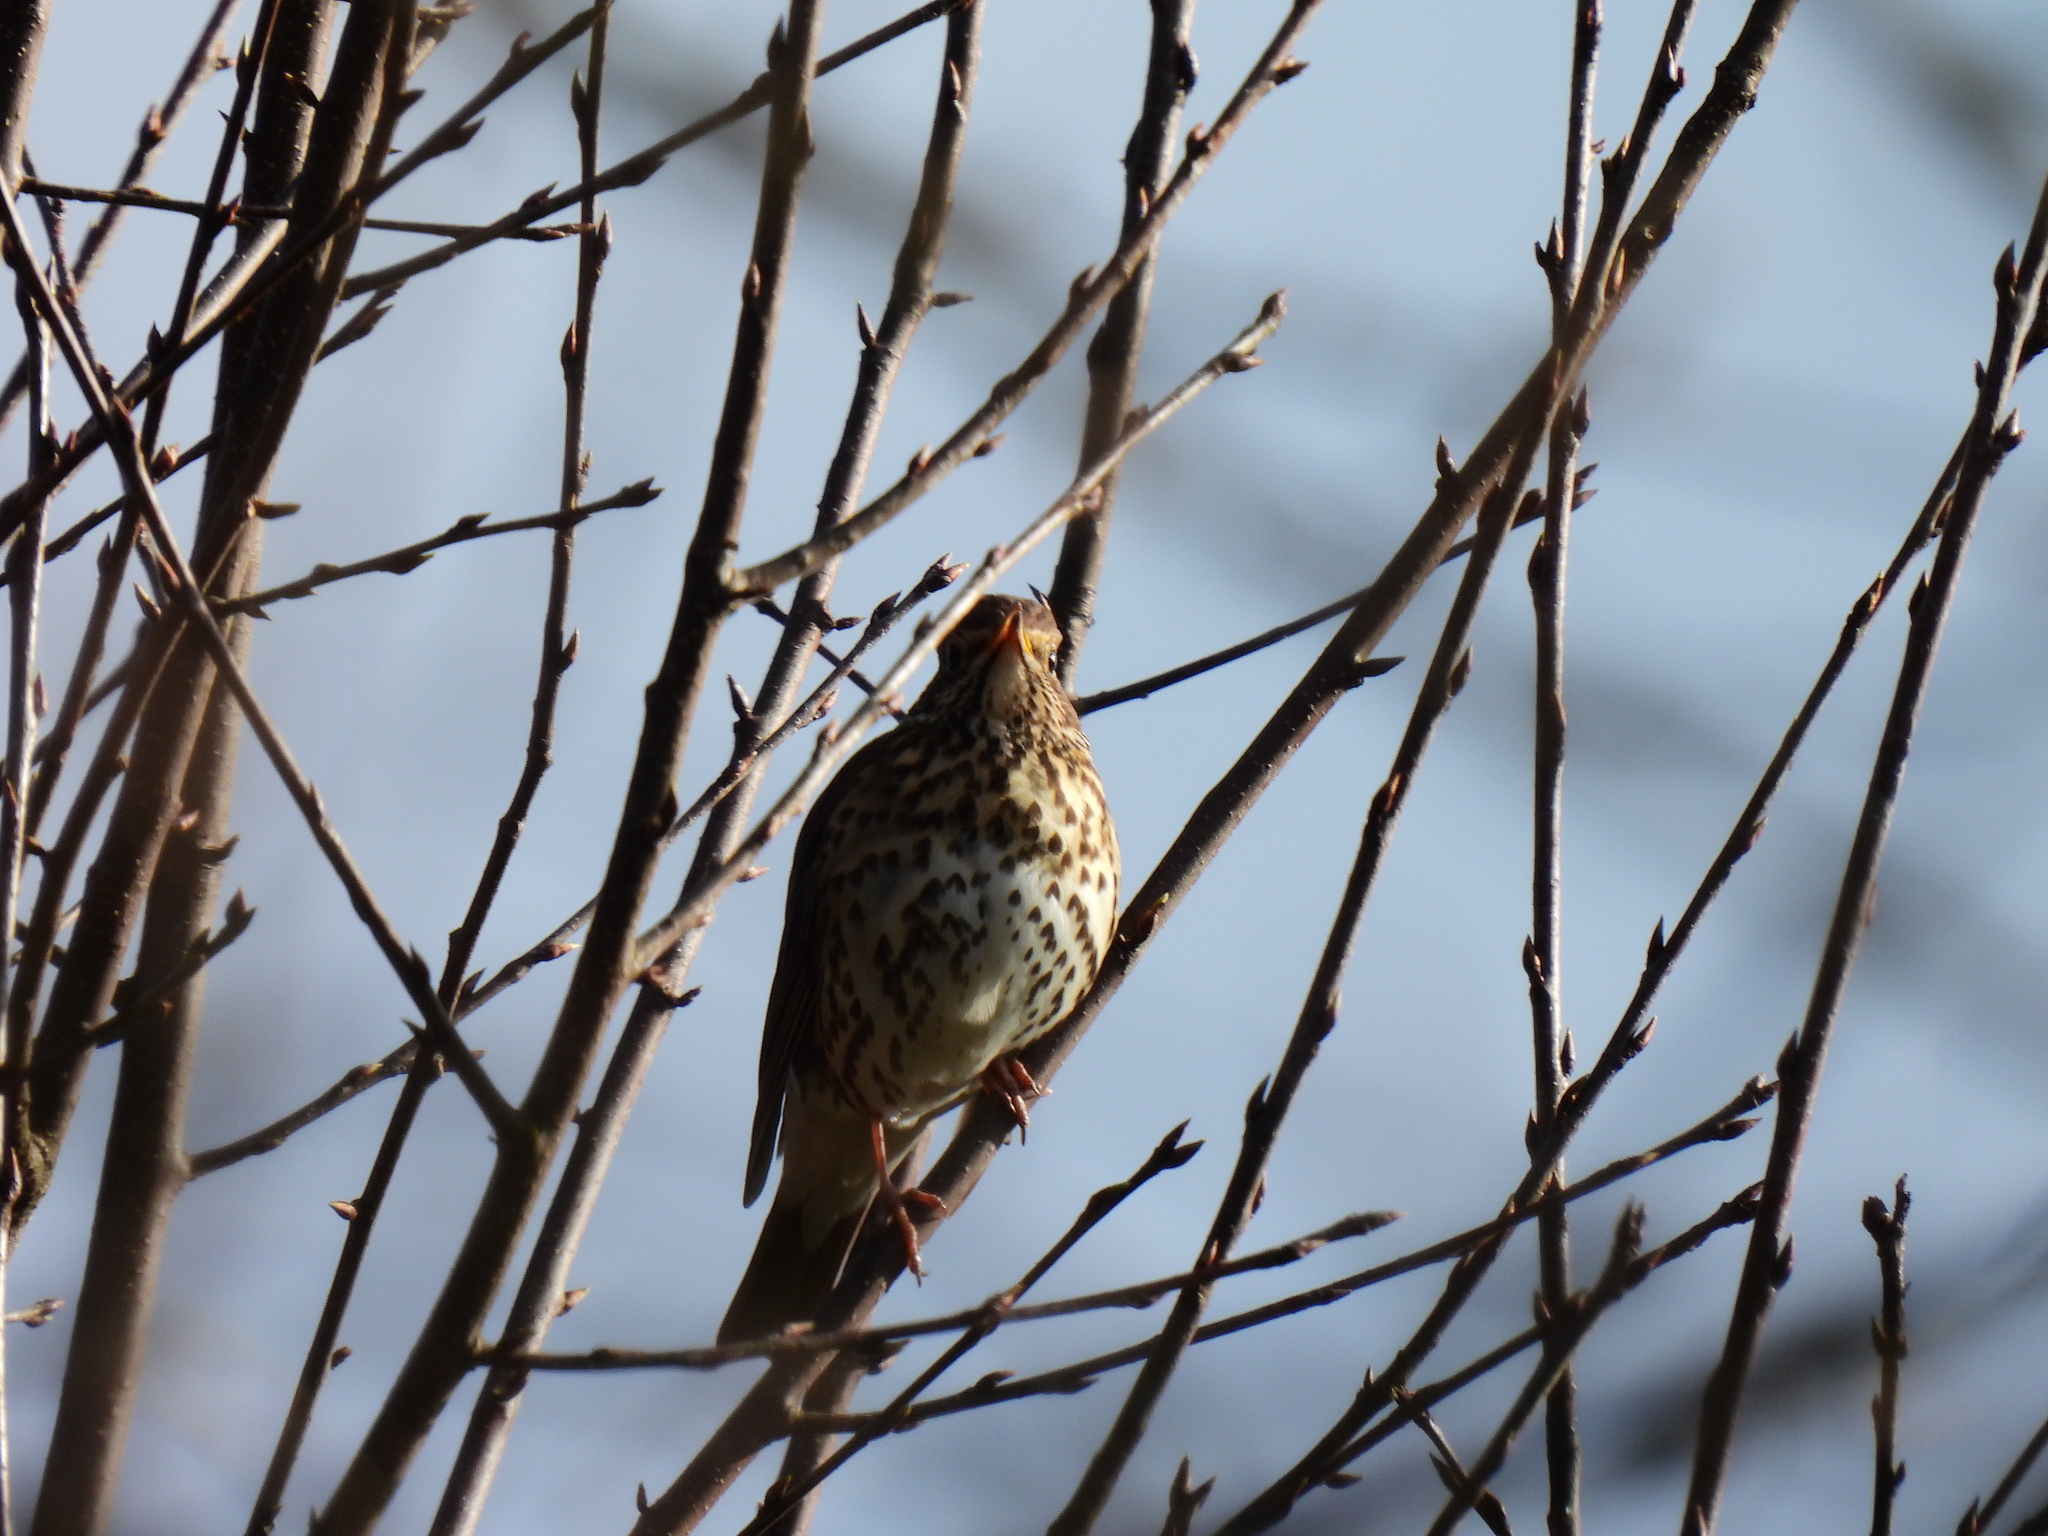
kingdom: Animalia
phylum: Chordata
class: Aves
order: Passeriformes
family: Turdidae
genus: Turdus
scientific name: Turdus philomelos
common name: Song thrush
